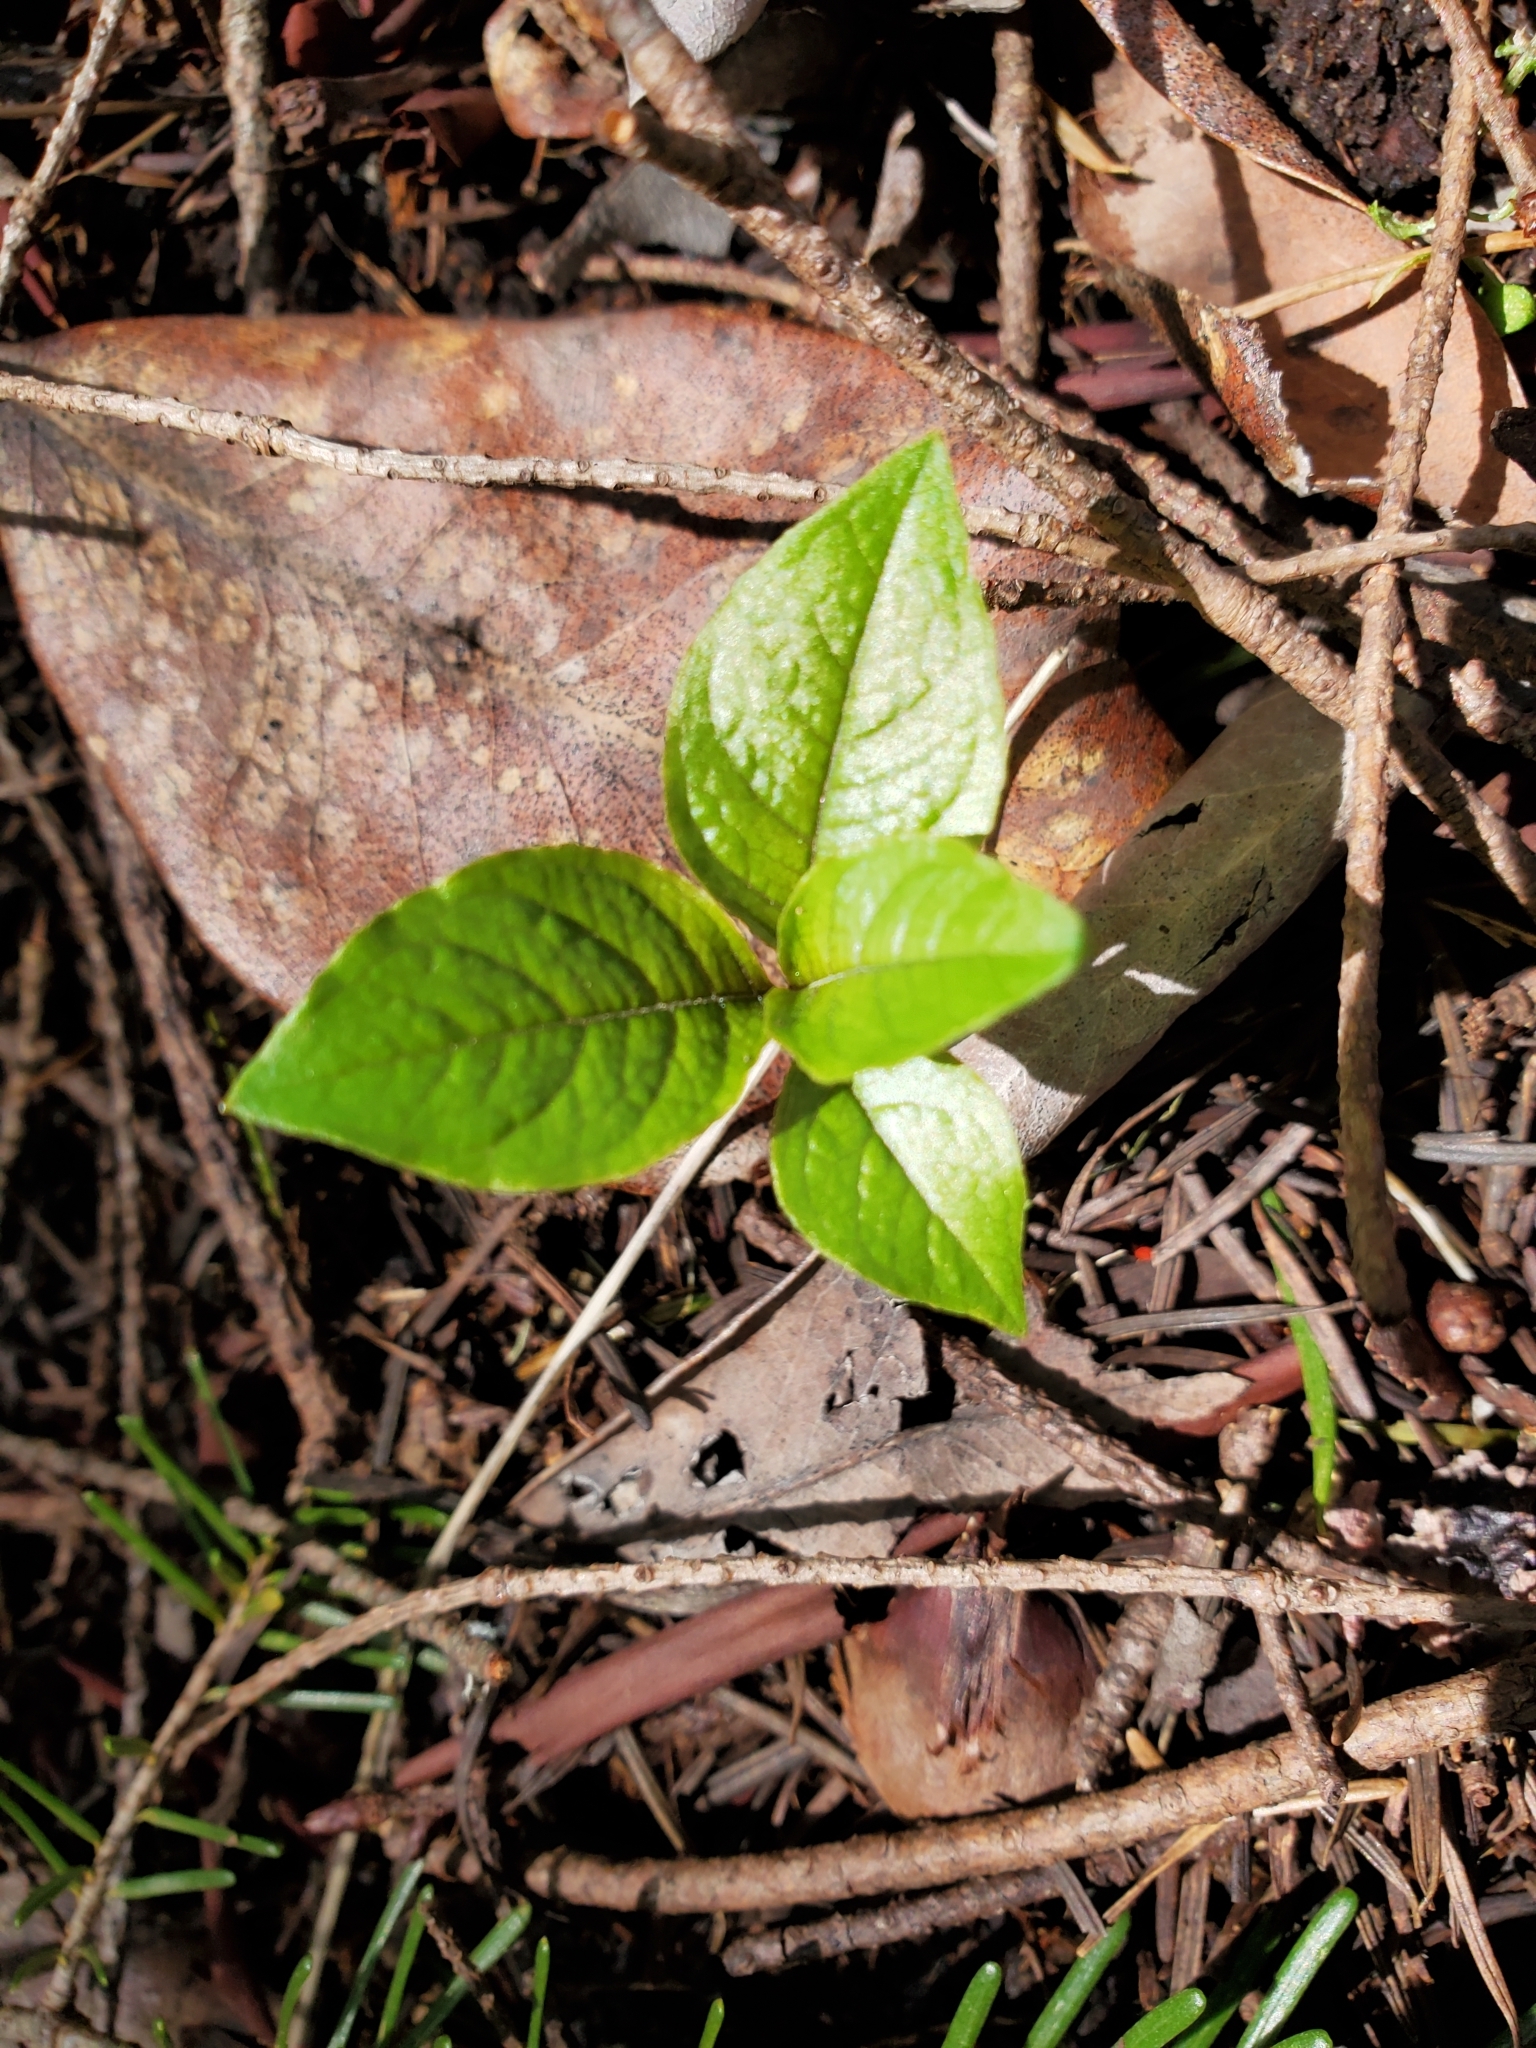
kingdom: Plantae
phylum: Tracheophyta
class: Magnoliopsida
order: Ericales
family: Primulaceae
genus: Lysimachia
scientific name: Lysimachia latifolia
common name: Pacific starflower
